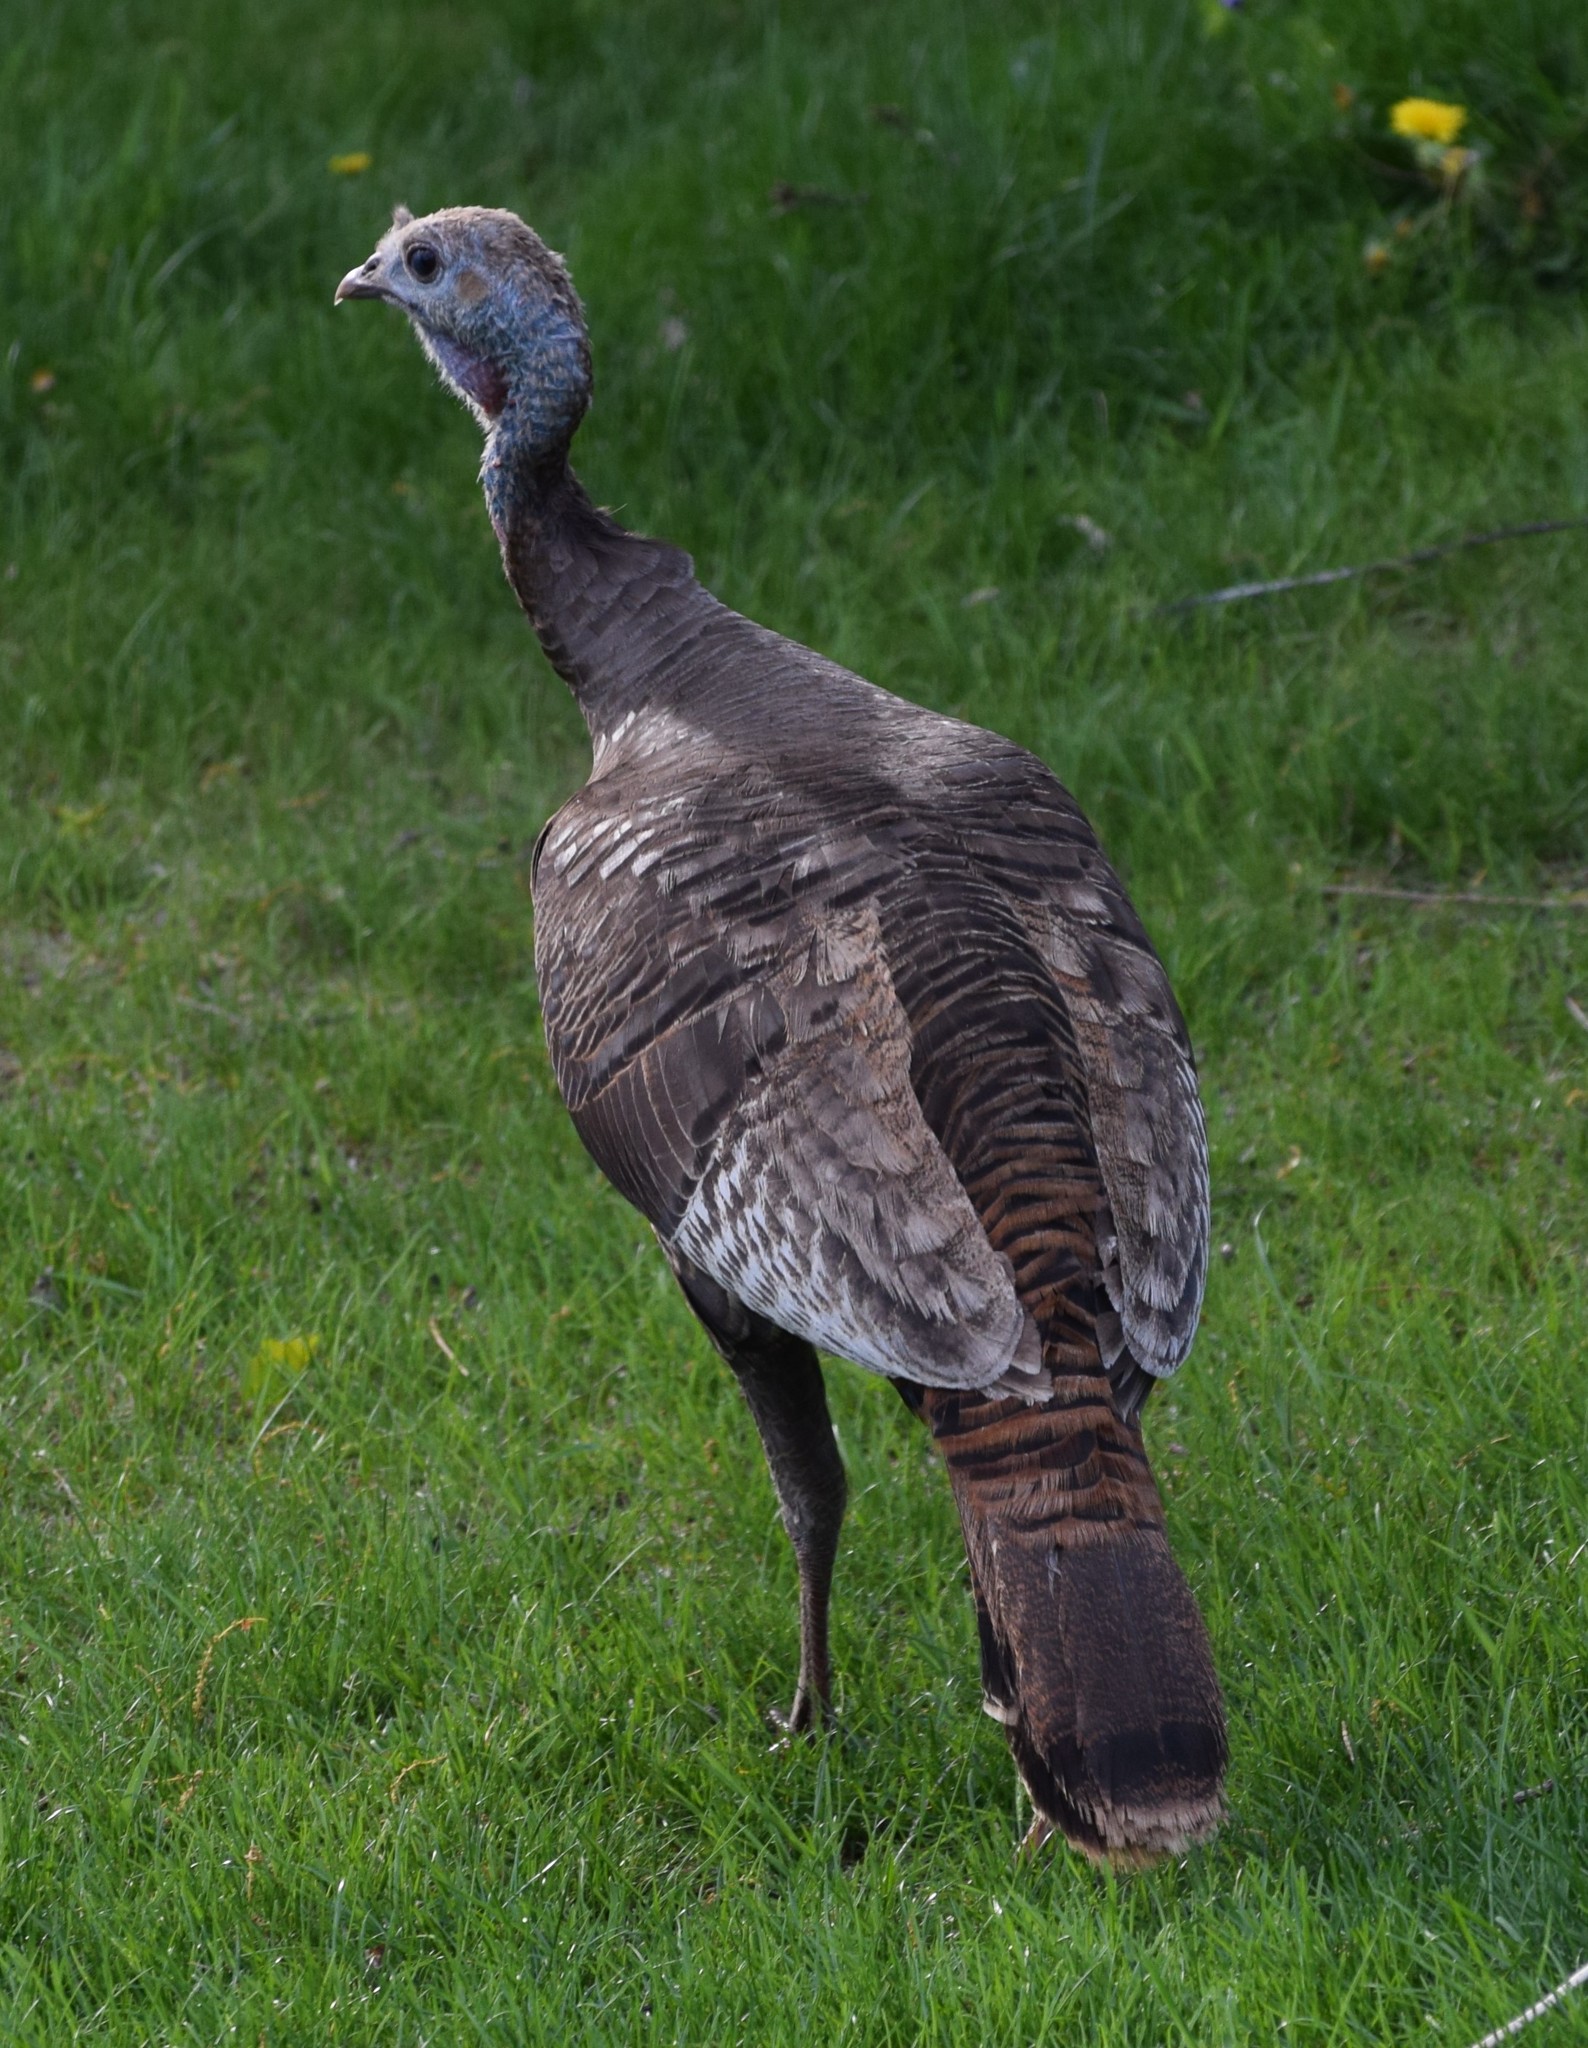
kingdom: Animalia
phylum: Chordata
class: Aves
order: Galliformes
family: Phasianidae
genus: Meleagris
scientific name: Meleagris gallopavo
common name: Wild turkey
